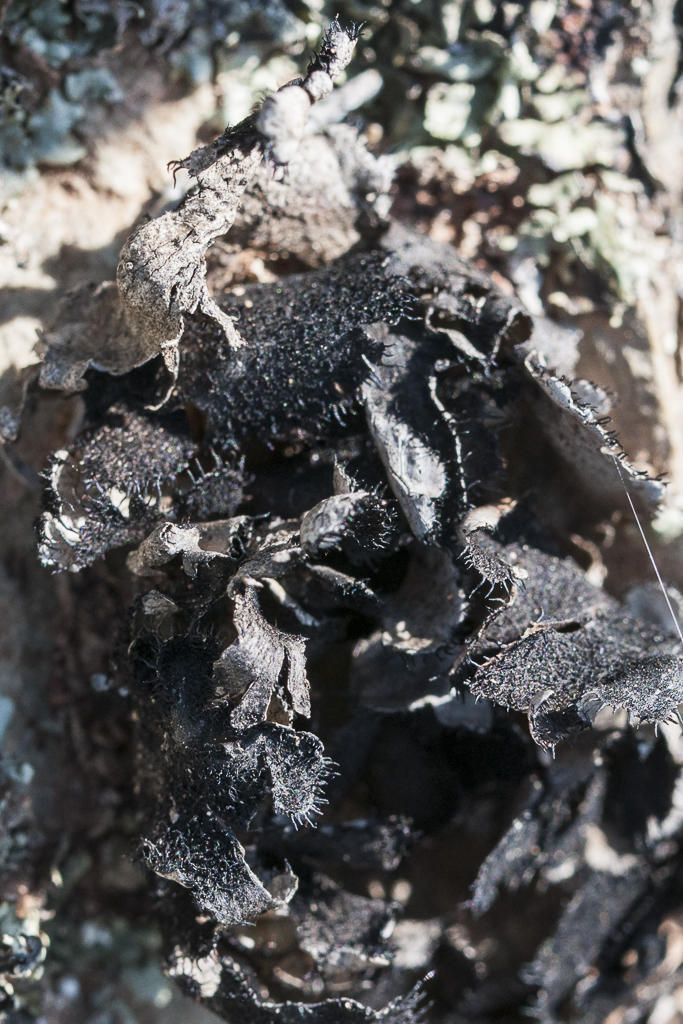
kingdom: Fungi
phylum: Ascomycota
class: Lecanoromycetes
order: Lecanorales
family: Parmeliaceae
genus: Xanthoparmelia
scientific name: Xanthoparmelia hottentotta
